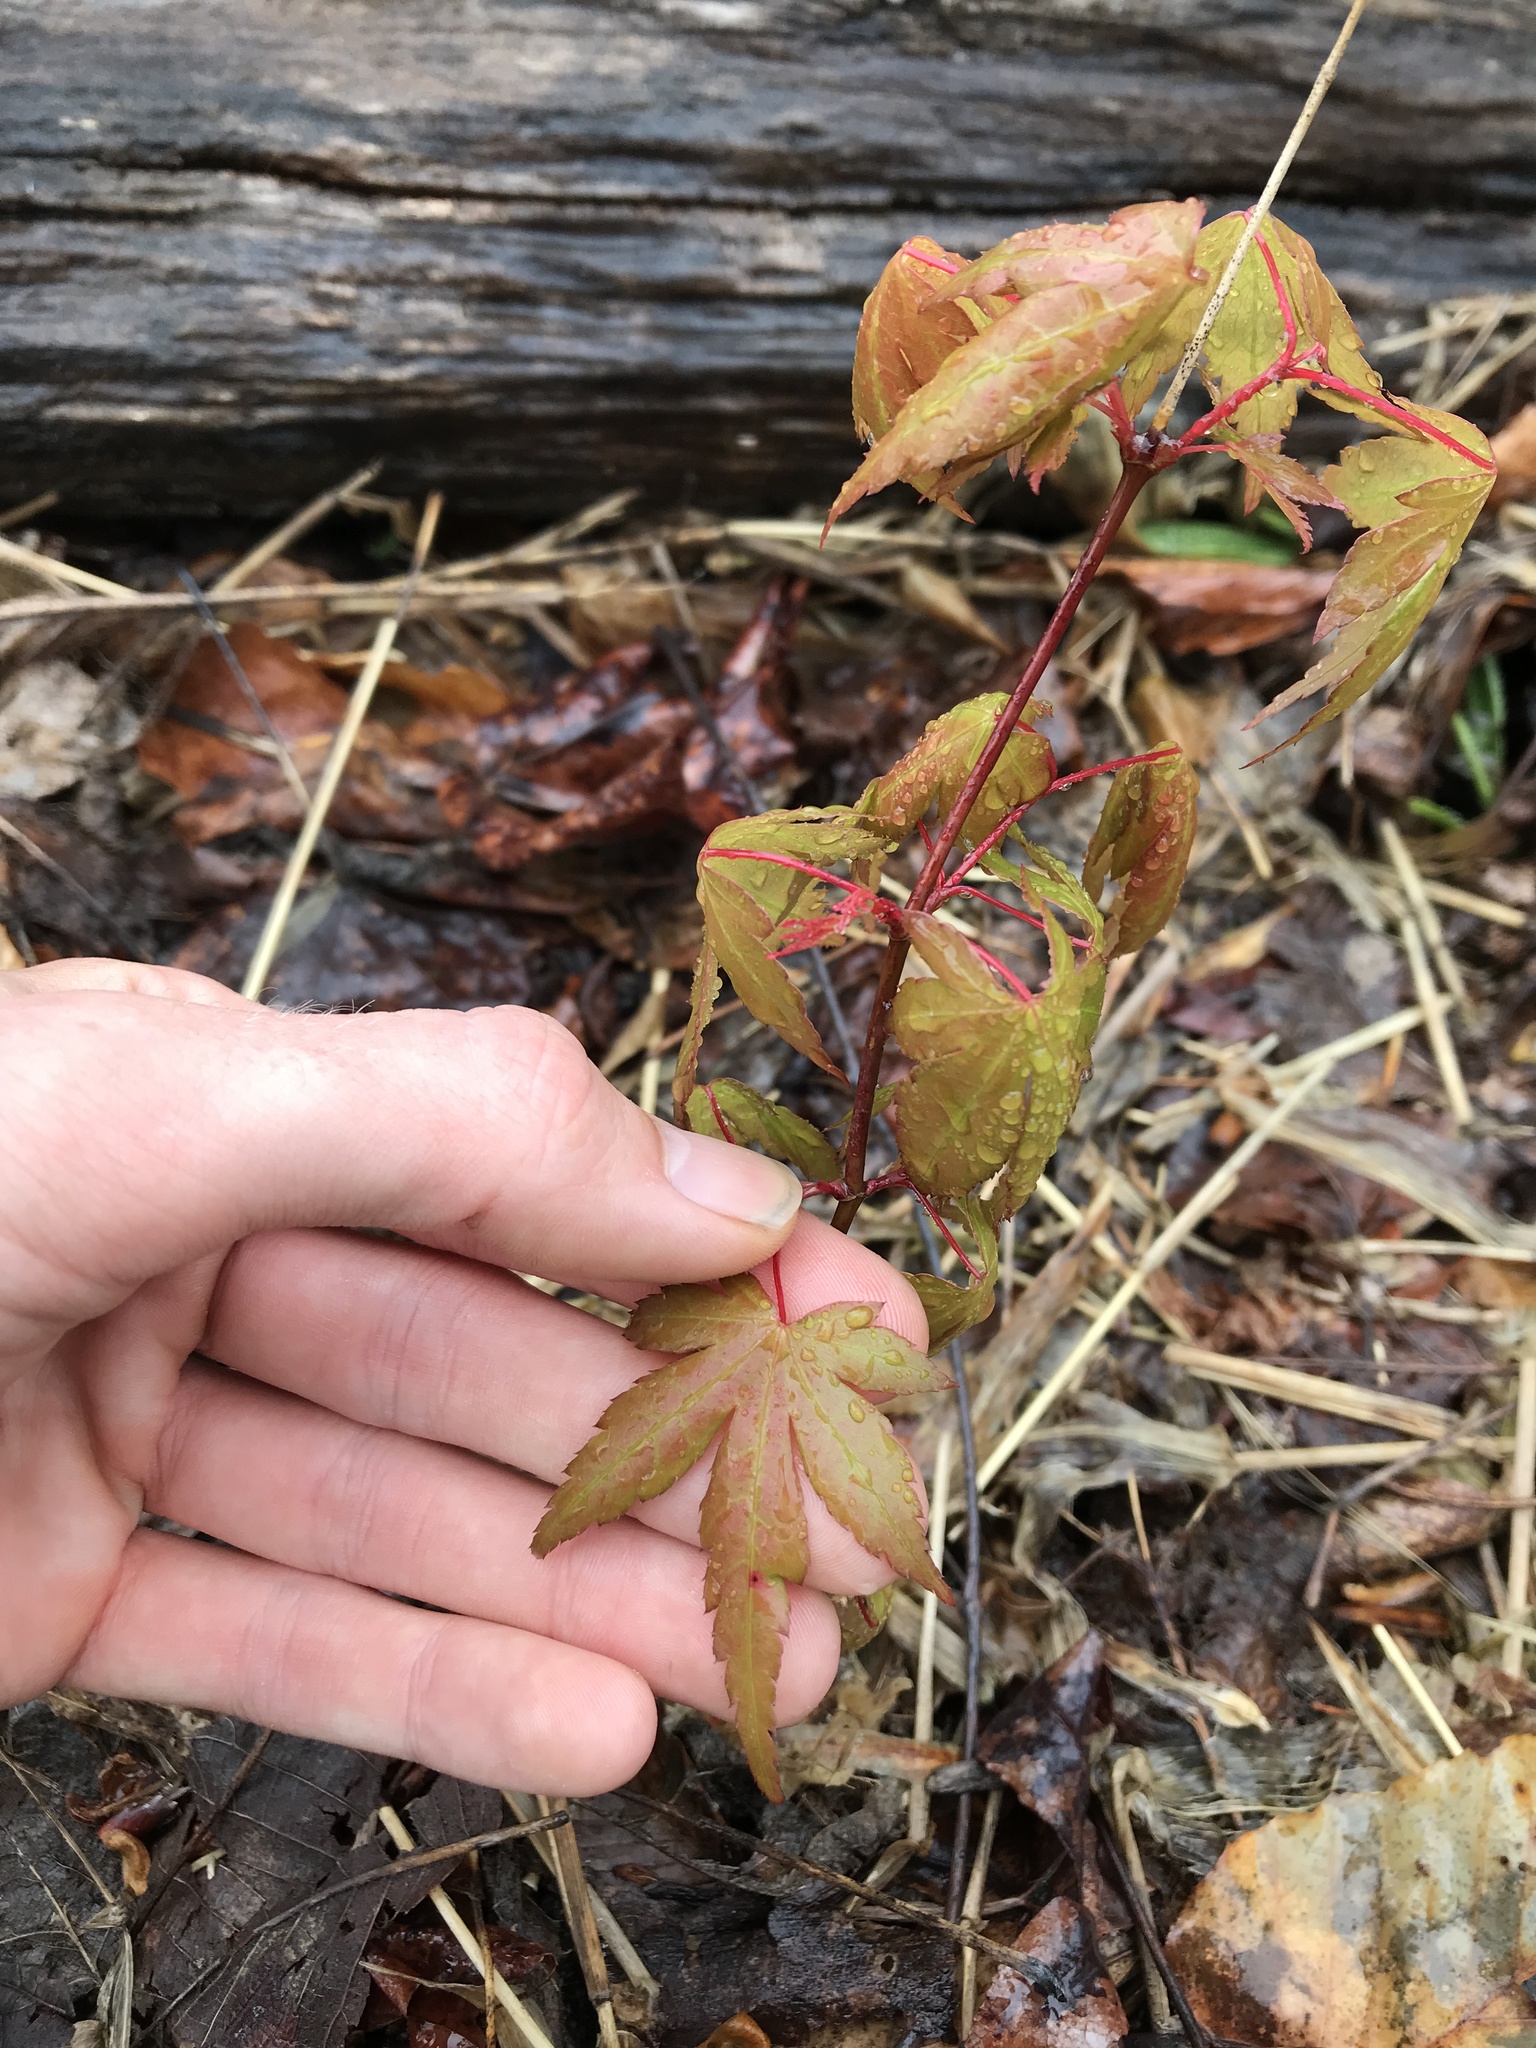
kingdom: Plantae
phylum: Tracheophyta
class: Magnoliopsida
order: Sapindales
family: Sapindaceae
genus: Acer
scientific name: Acer palmatum
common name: Japanese maple
